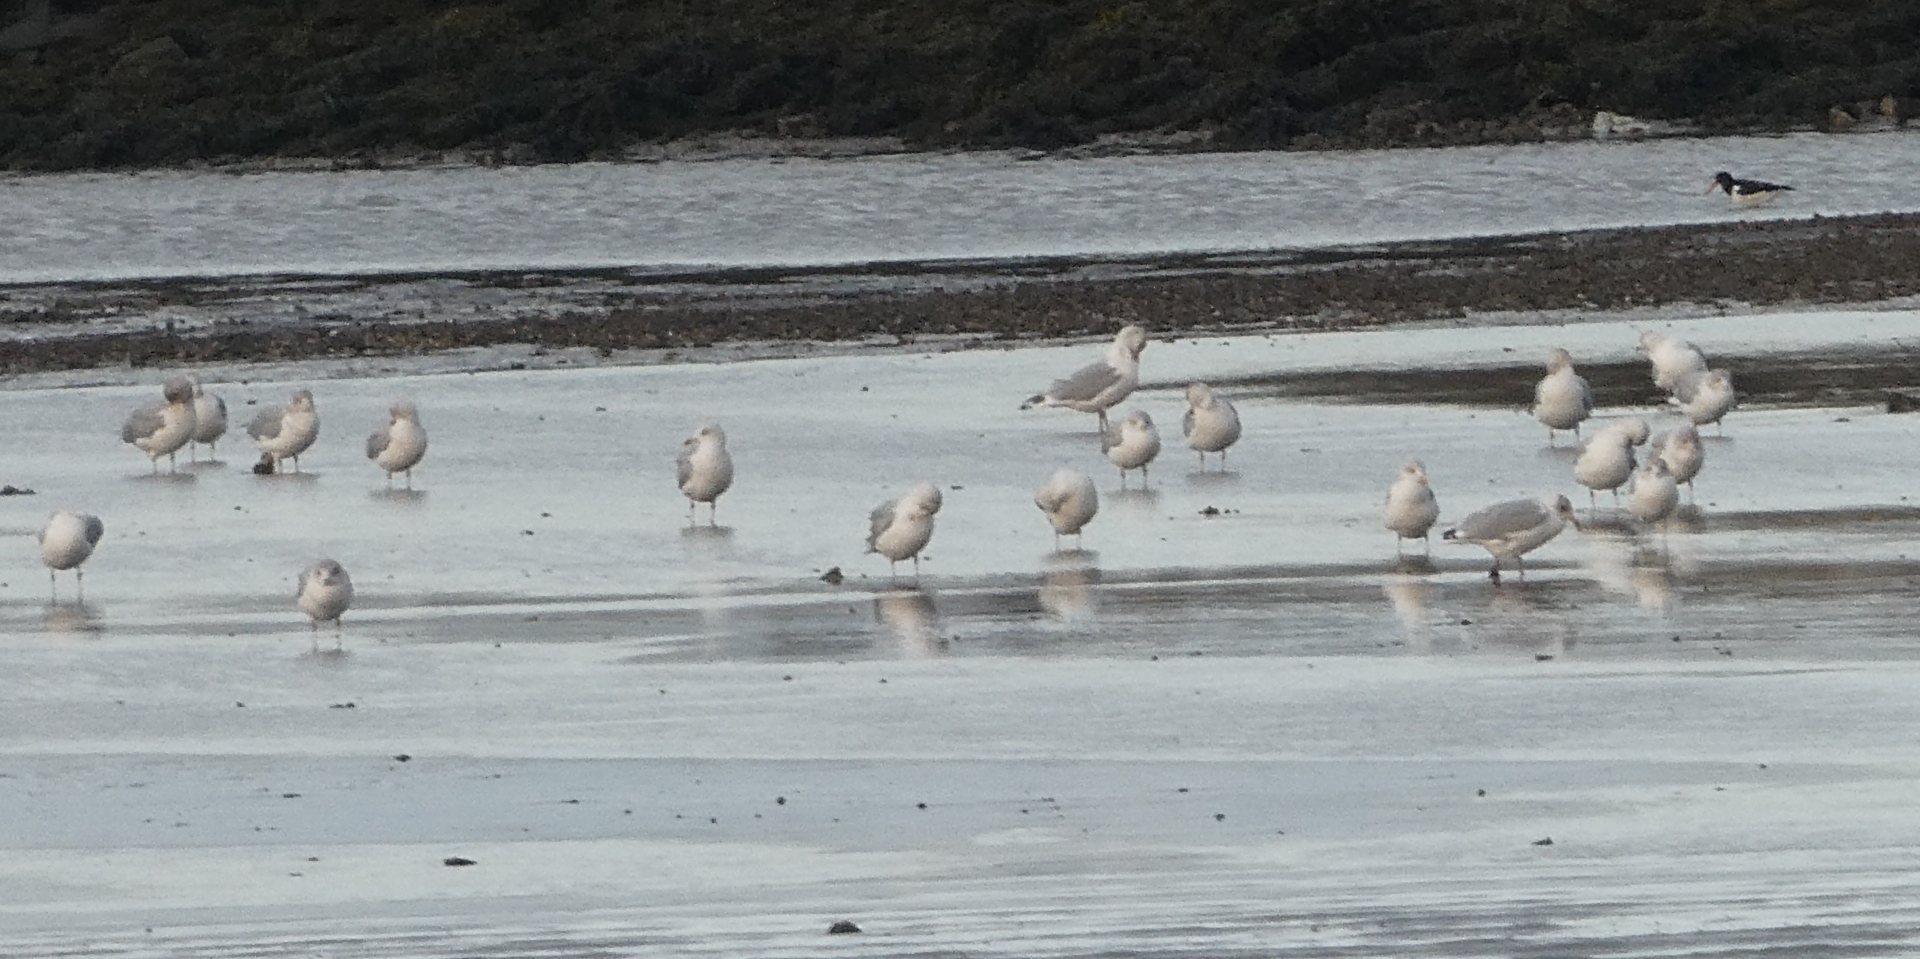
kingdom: Animalia
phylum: Chordata
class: Aves
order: Charadriiformes
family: Laridae
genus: Larus
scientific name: Larus argentatus
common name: Herring gull
